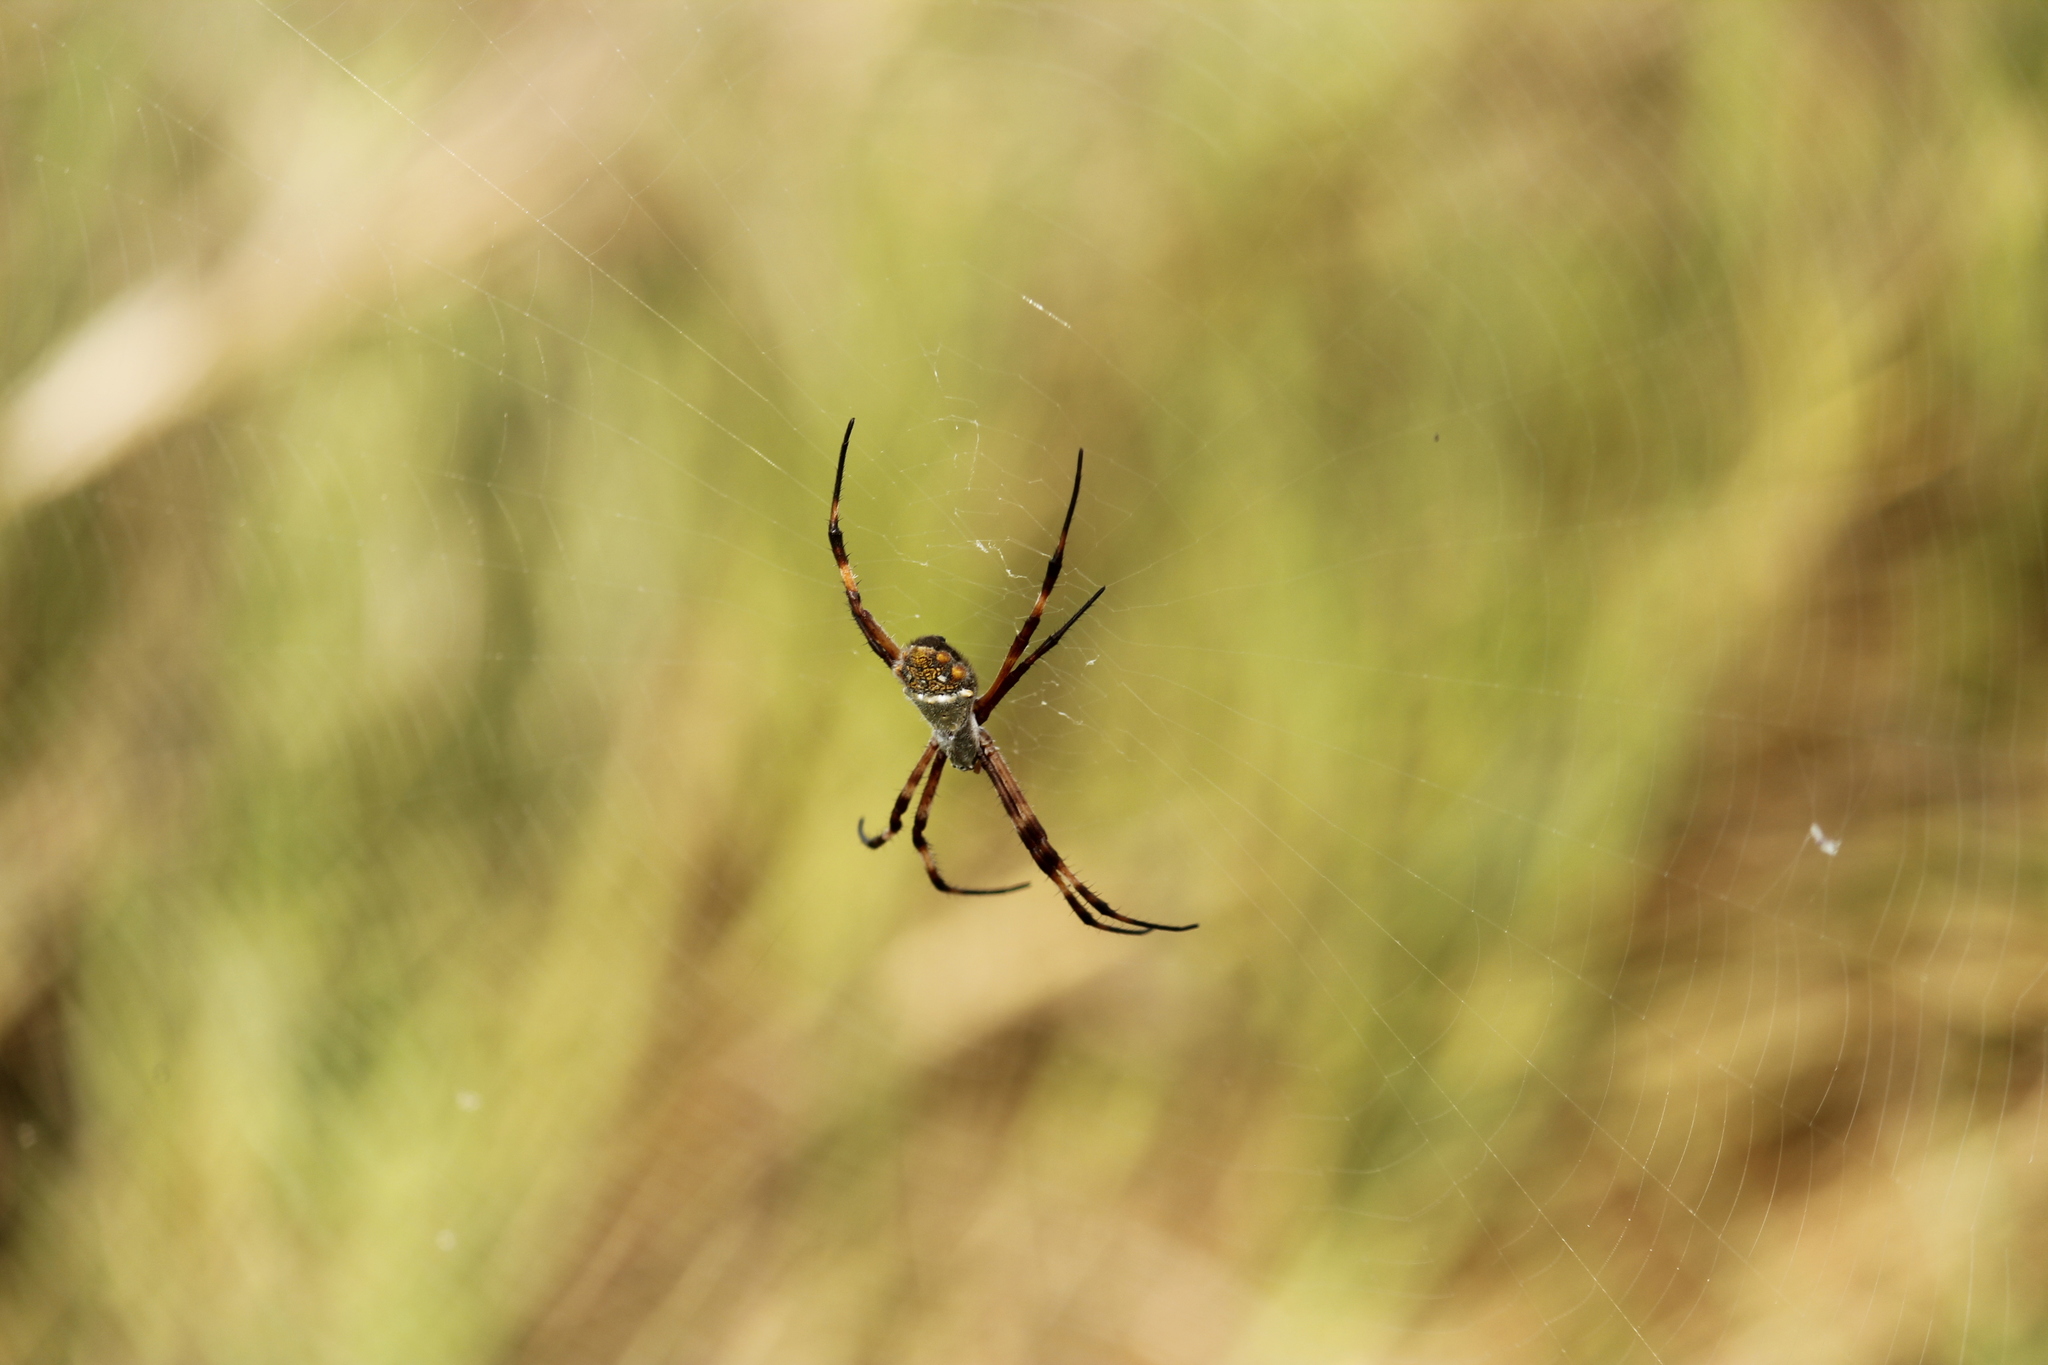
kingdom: Animalia
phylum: Arthropoda
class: Arachnida
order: Araneae
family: Araneidae
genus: Argiope
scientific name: Argiope argentata
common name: Orb weavers
